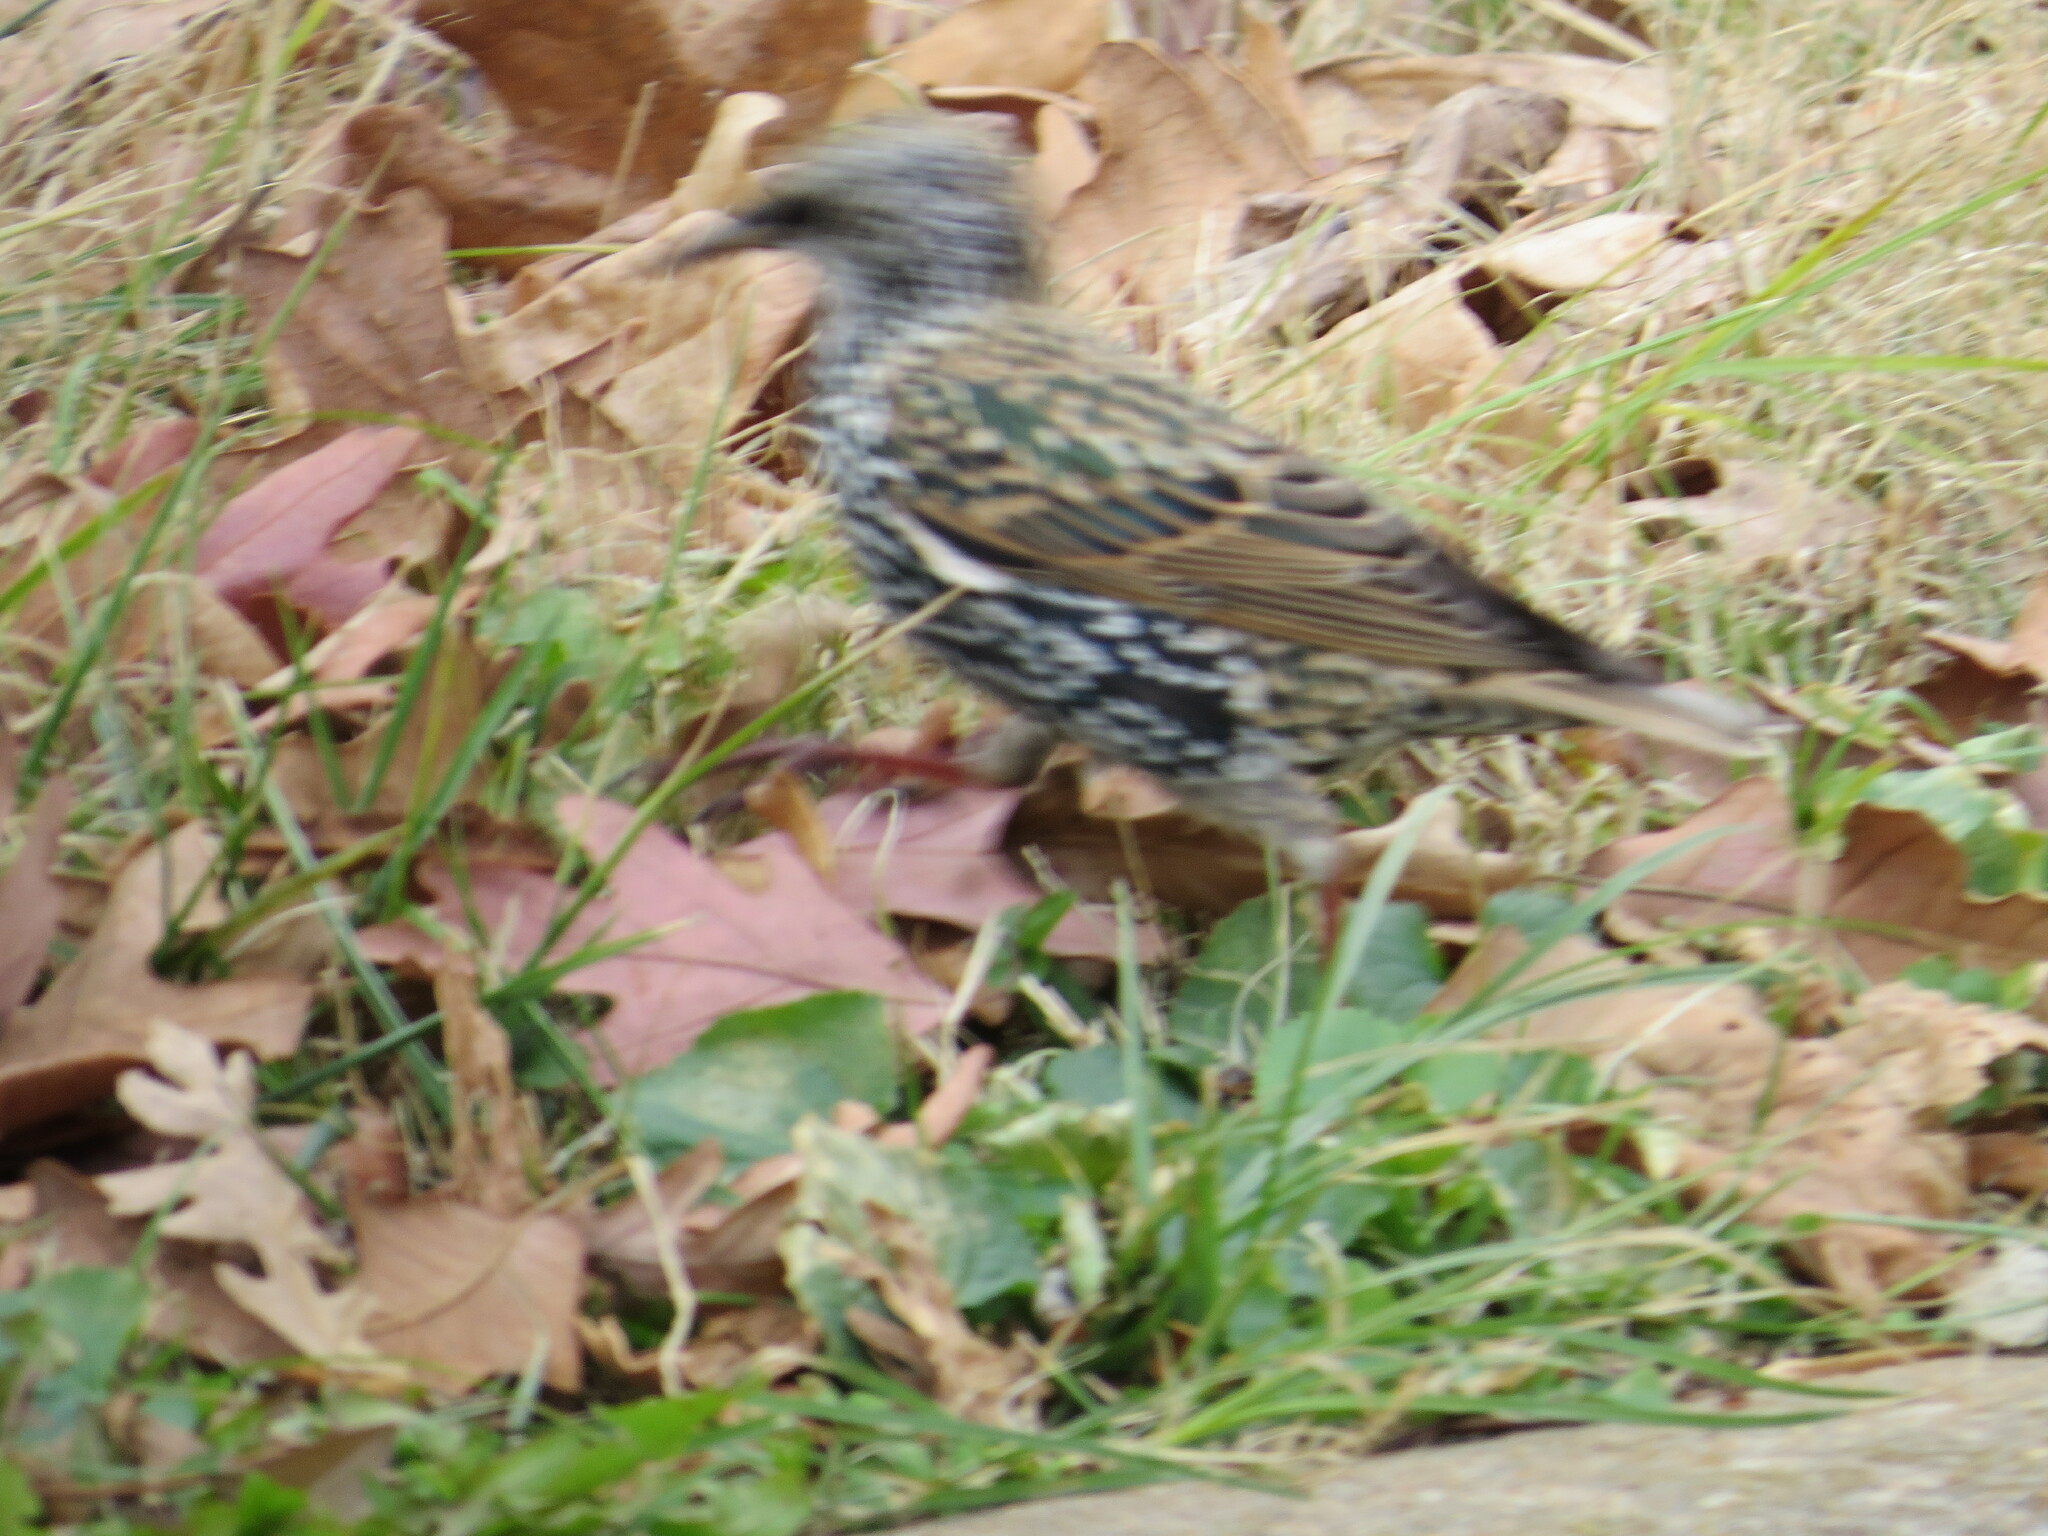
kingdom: Animalia
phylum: Chordata
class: Aves
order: Passeriformes
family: Sturnidae
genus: Sturnus
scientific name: Sturnus vulgaris
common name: Common starling
